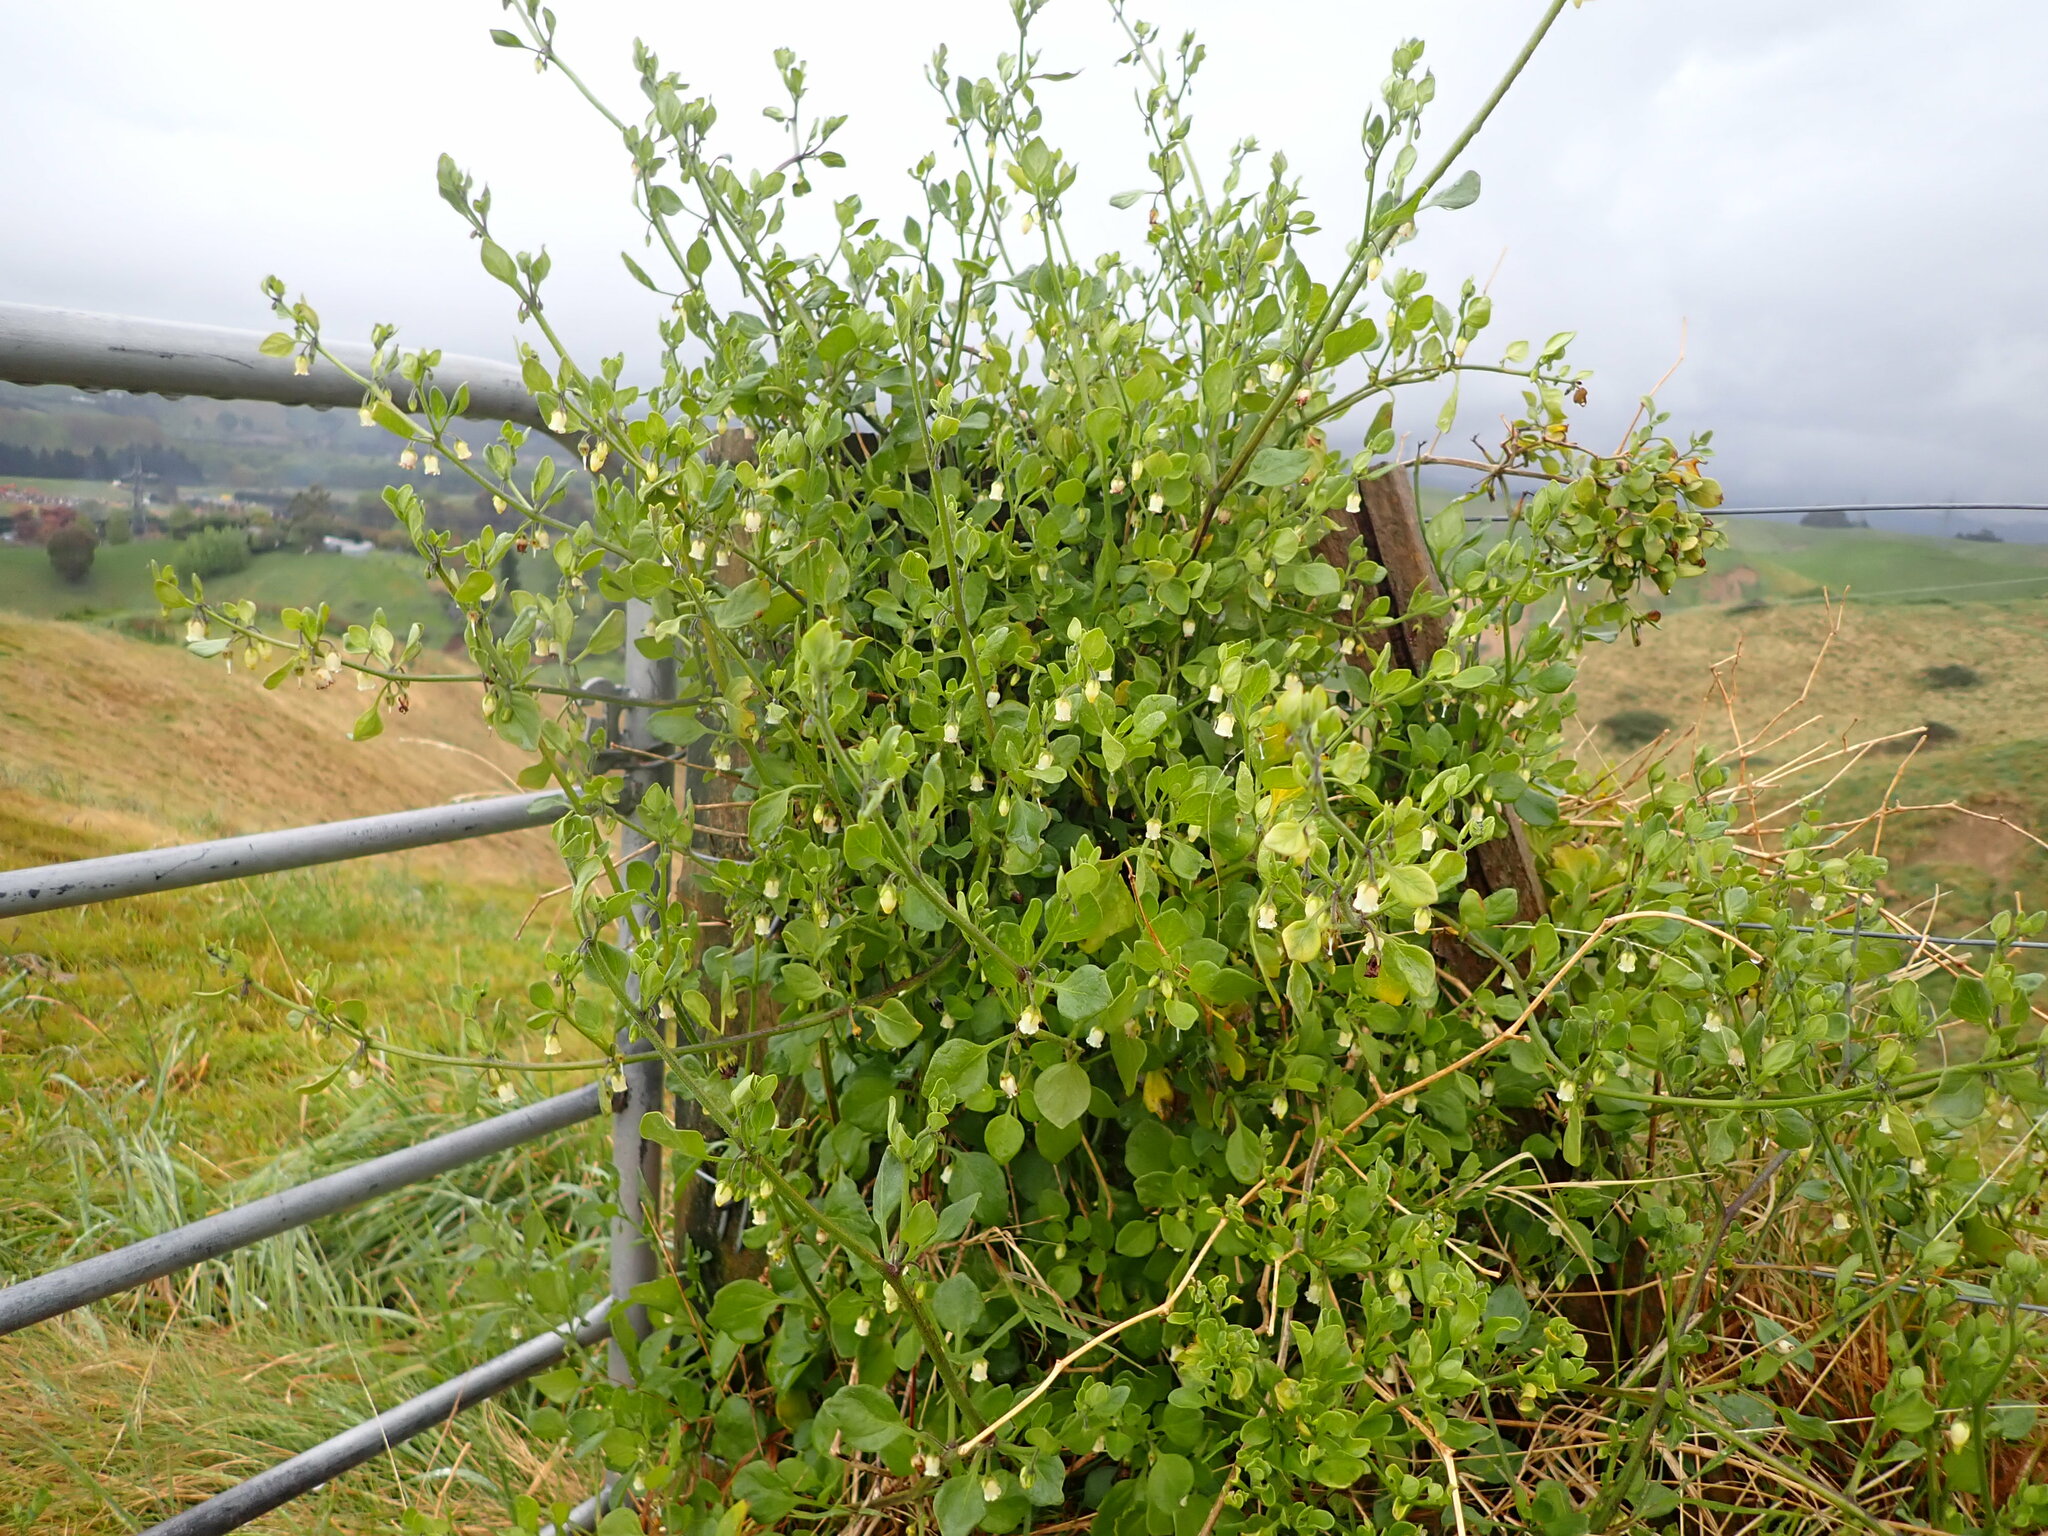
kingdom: Plantae
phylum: Tracheophyta
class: Magnoliopsida
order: Solanales
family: Solanaceae
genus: Salpichroa
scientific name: Salpichroa origanifolia
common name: Lily-of-the-valley-vine
